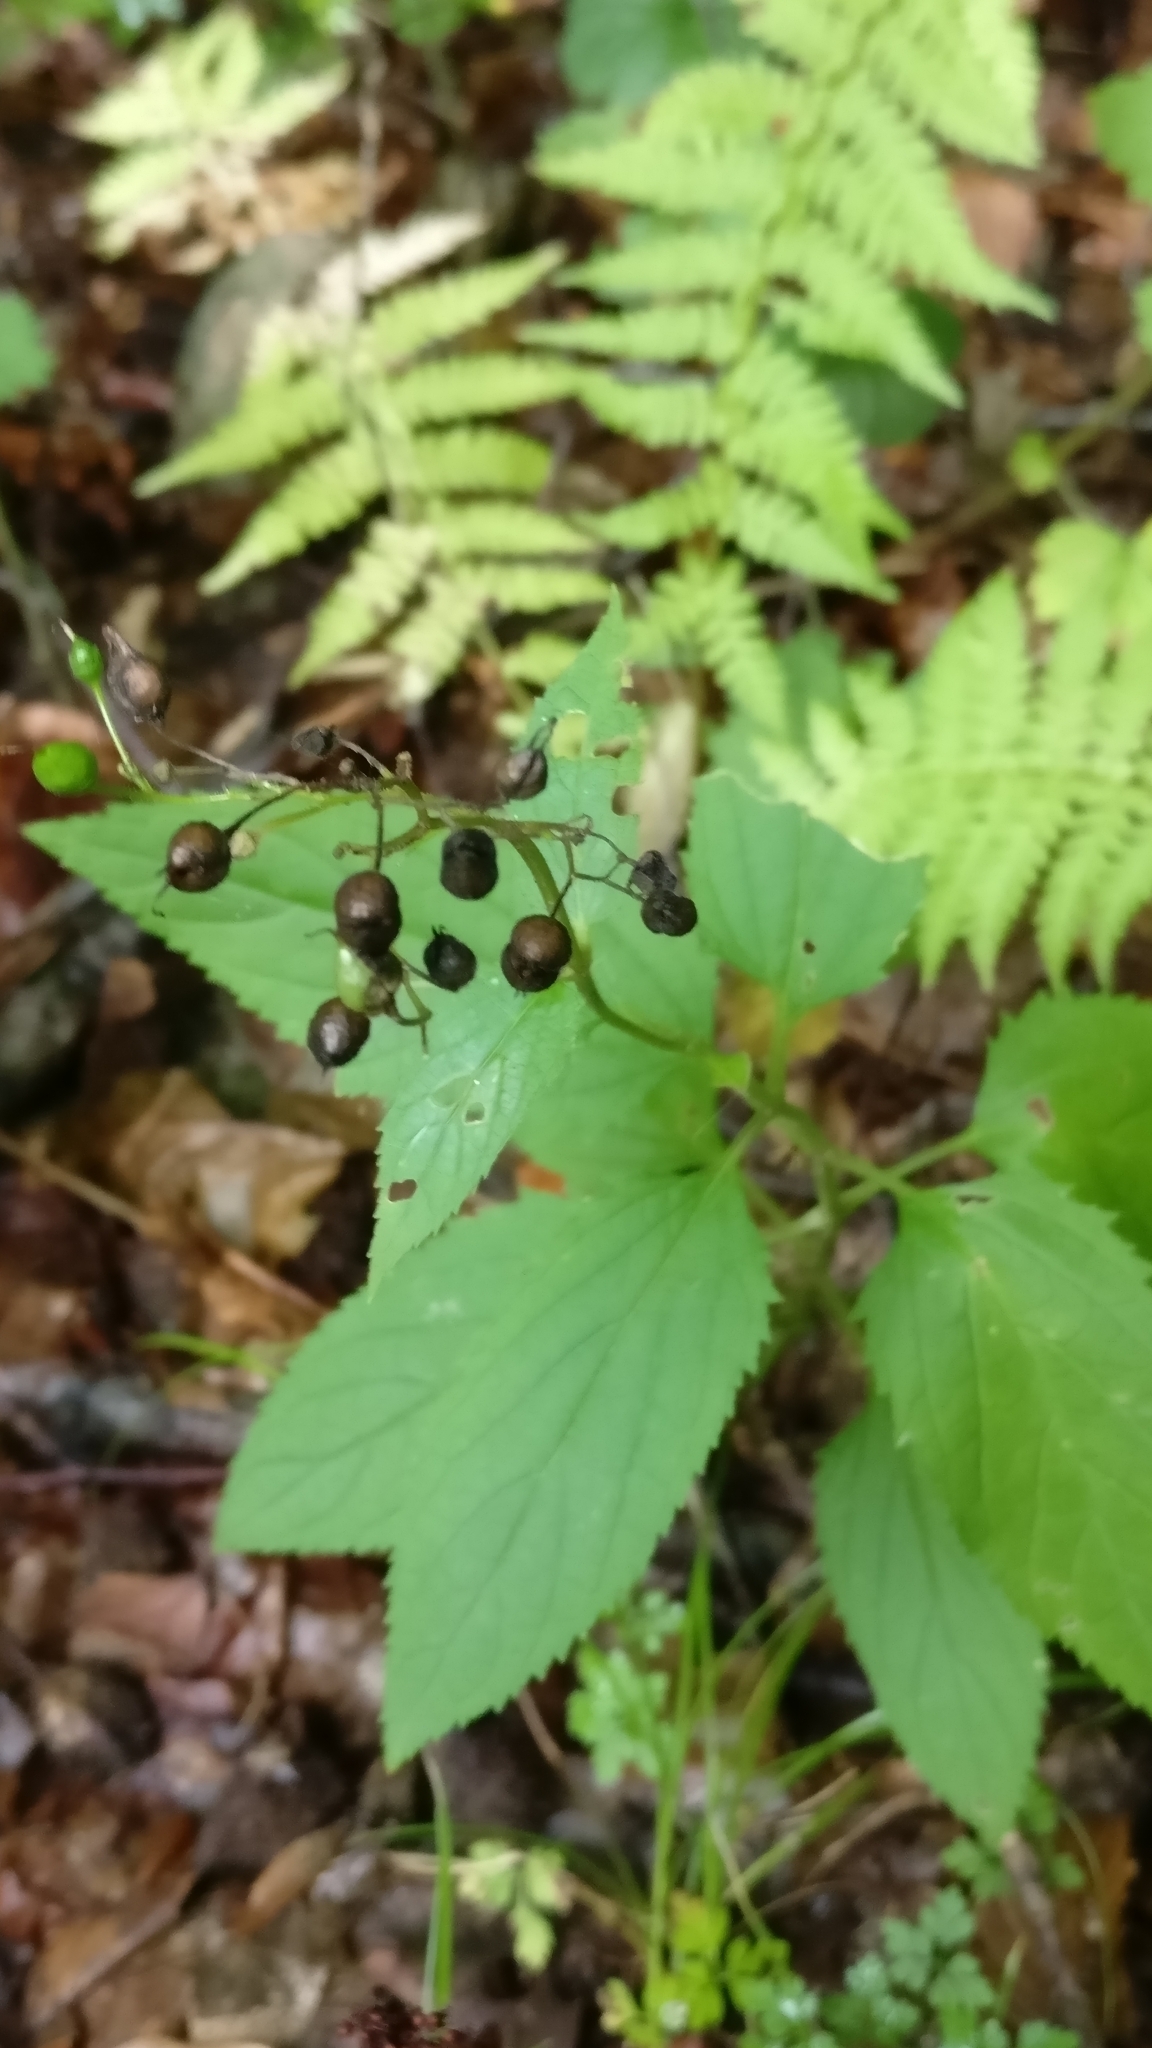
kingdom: Plantae
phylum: Tracheophyta
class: Magnoliopsida
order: Lamiales
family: Scrophulariaceae
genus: Scrophularia
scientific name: Scrophularia nodosa
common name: Common figwort
